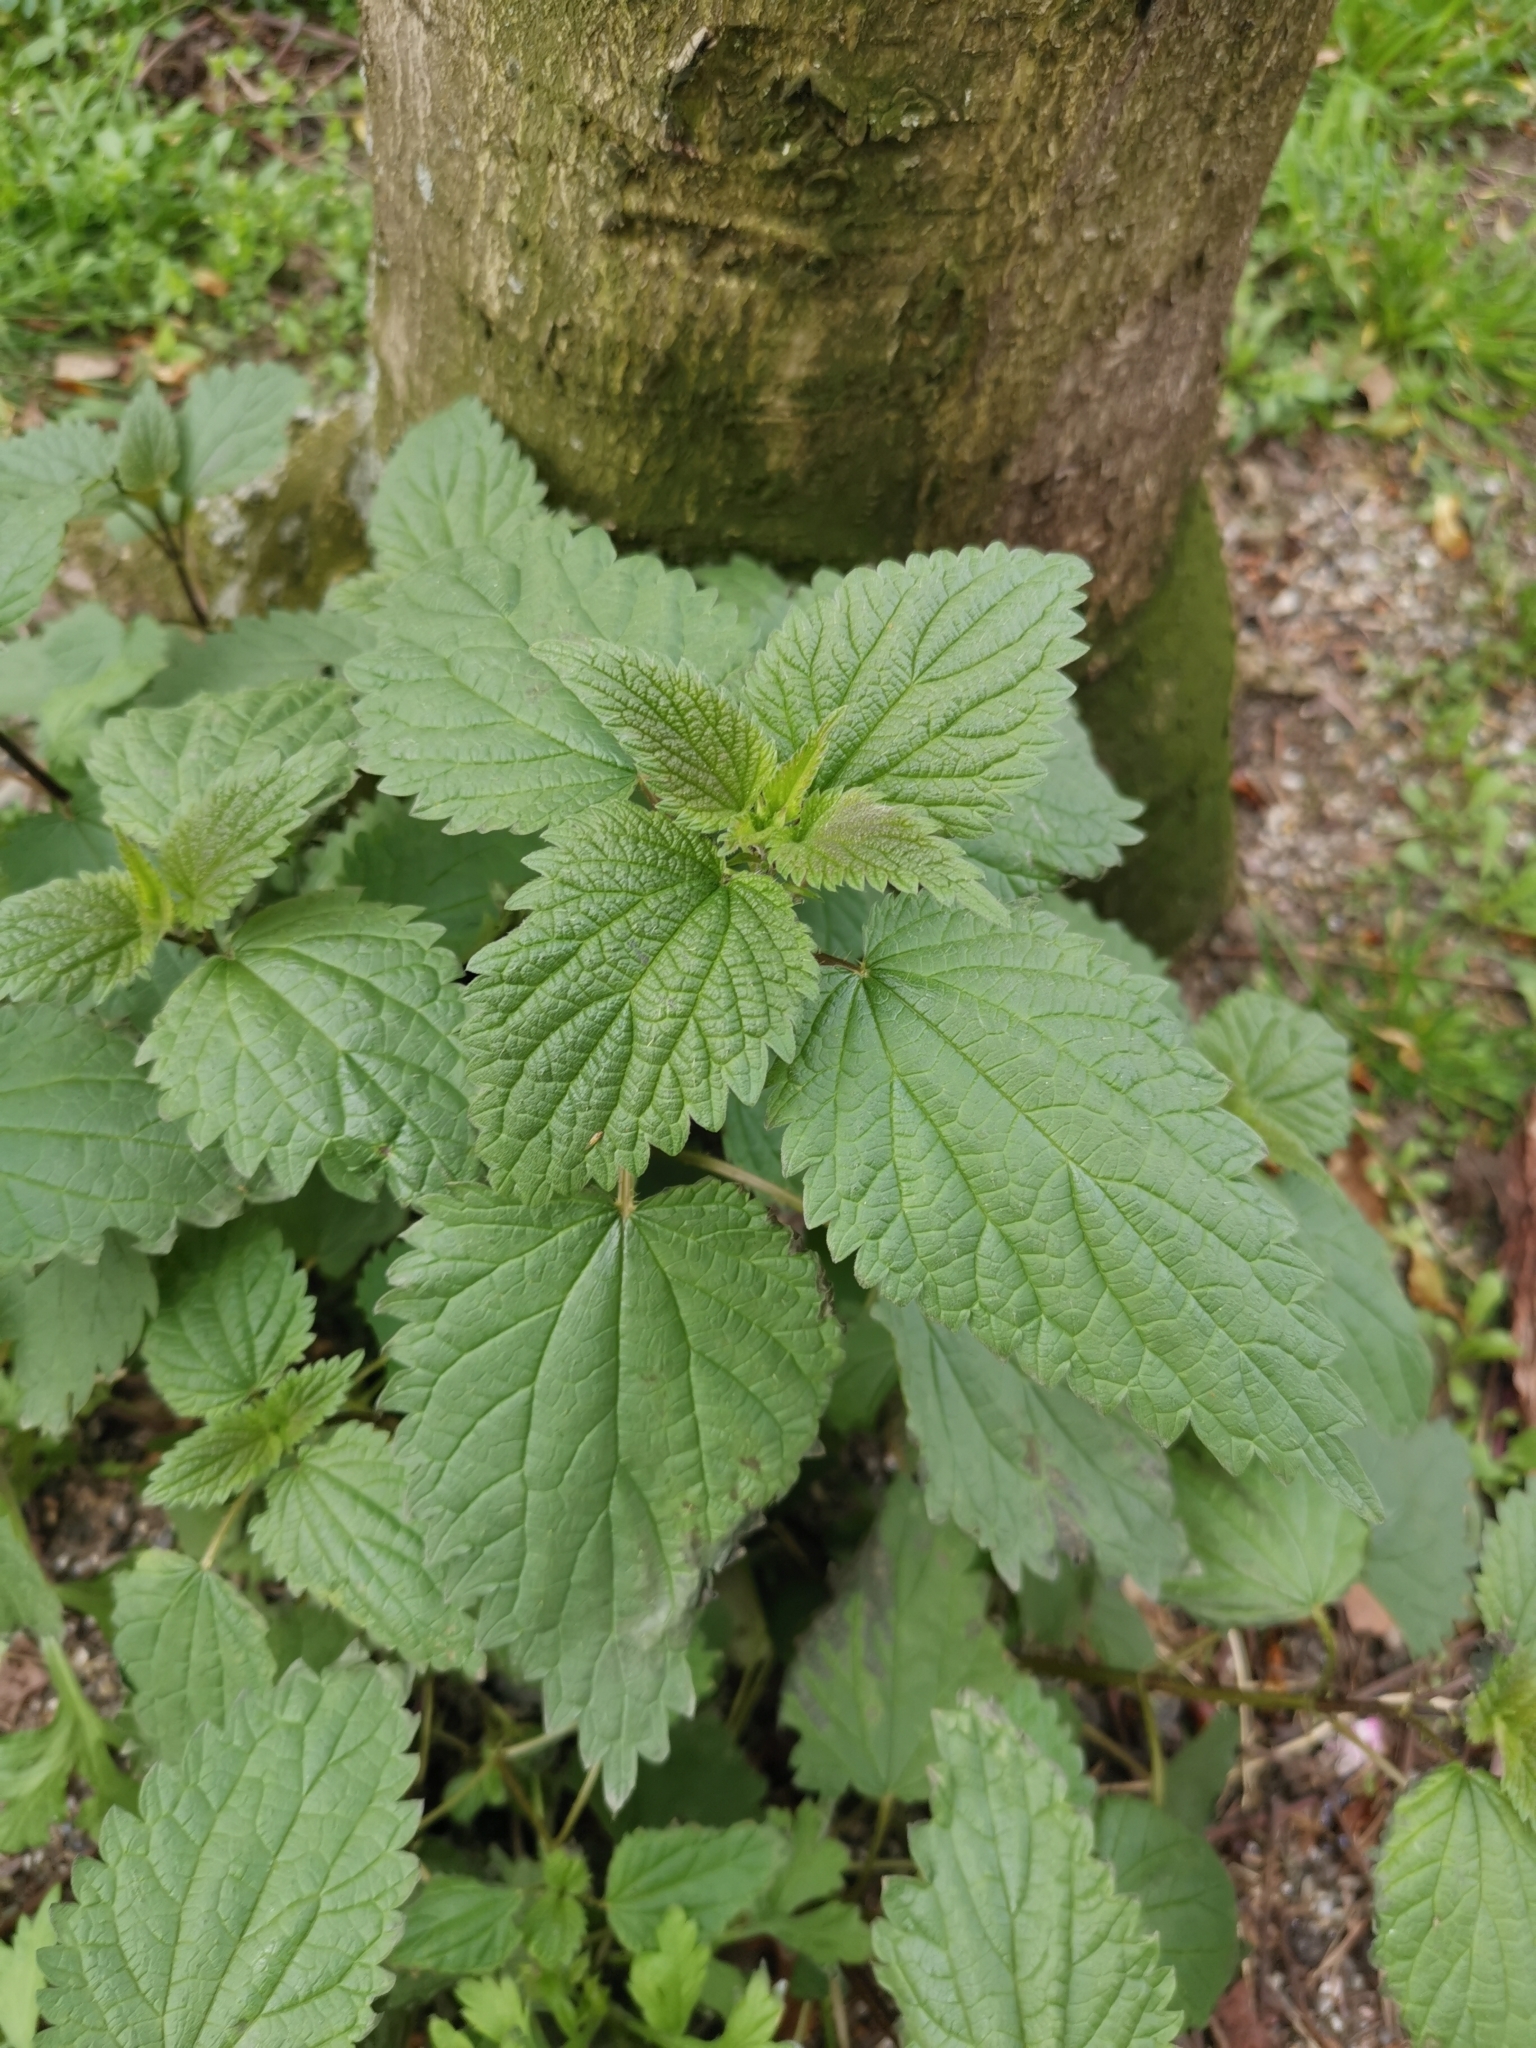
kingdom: Plantae
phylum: Tracheophyta
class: Magnoliopsida
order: Rosales
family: Urticaceae
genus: Urtica
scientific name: Urtica dioica
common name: Common nettle
